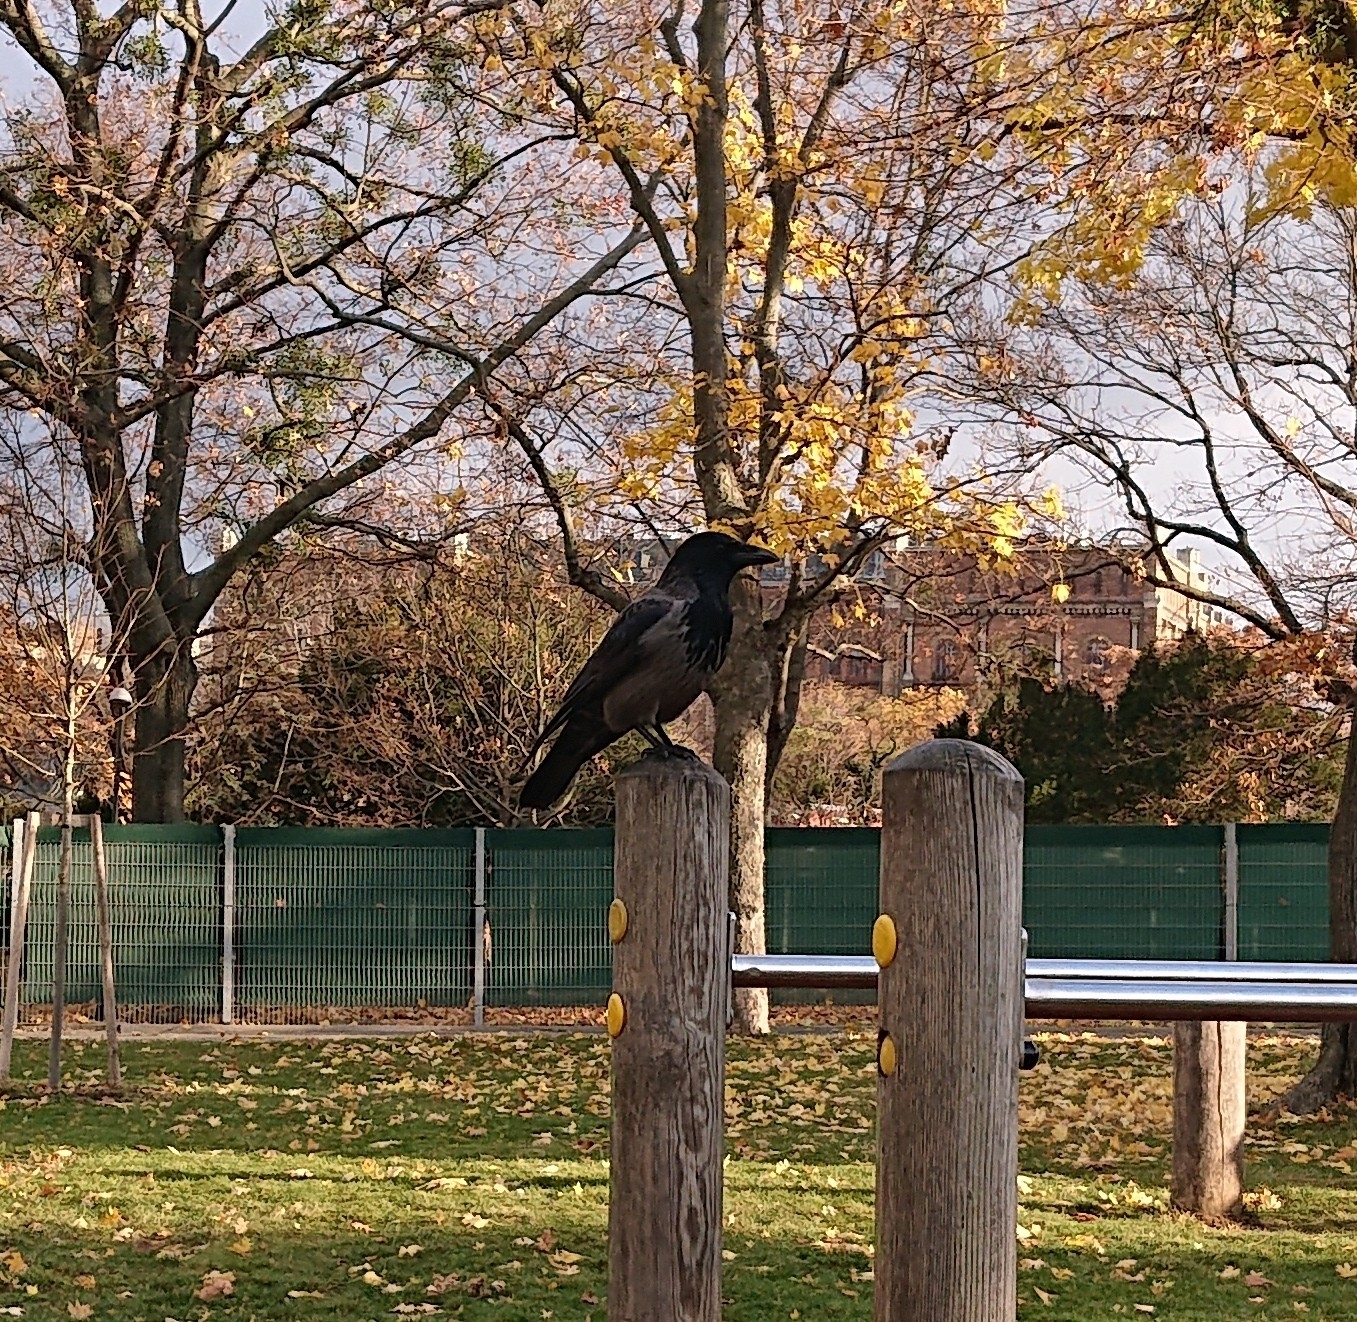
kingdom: Animalia
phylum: Chordata
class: Aves
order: Passeriformes
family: Corvidae
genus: Corvus
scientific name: Corvus cornix
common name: Hooded crow
